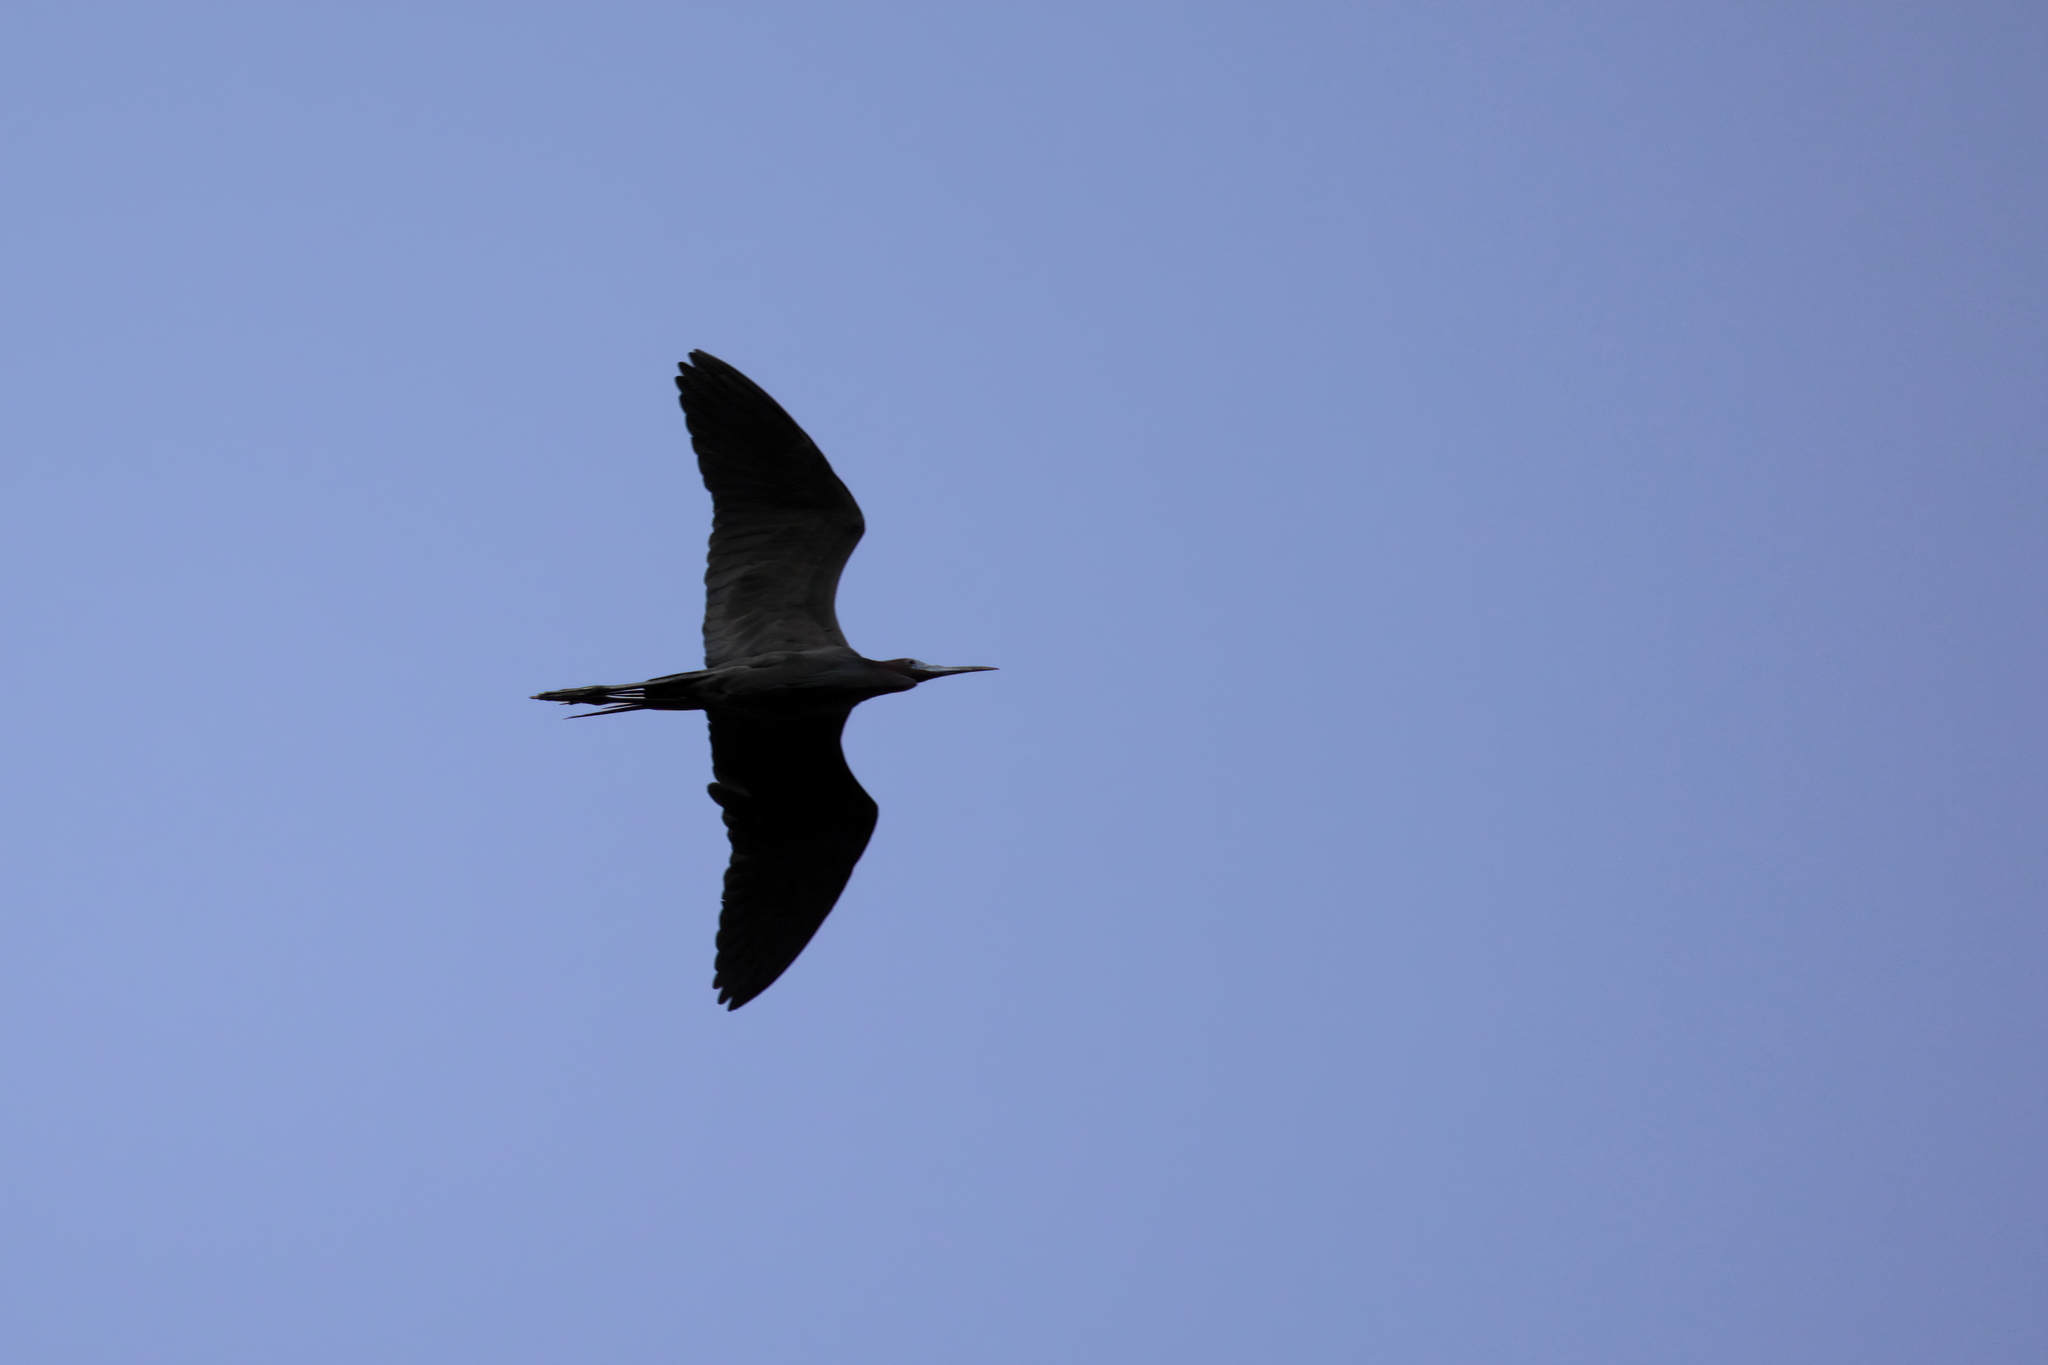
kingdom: Animalia
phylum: Chordata
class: Aves
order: Pelecaniformes
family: Ardeidae
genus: Egretta
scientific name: Egretta caerulea
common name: Little blue heron
